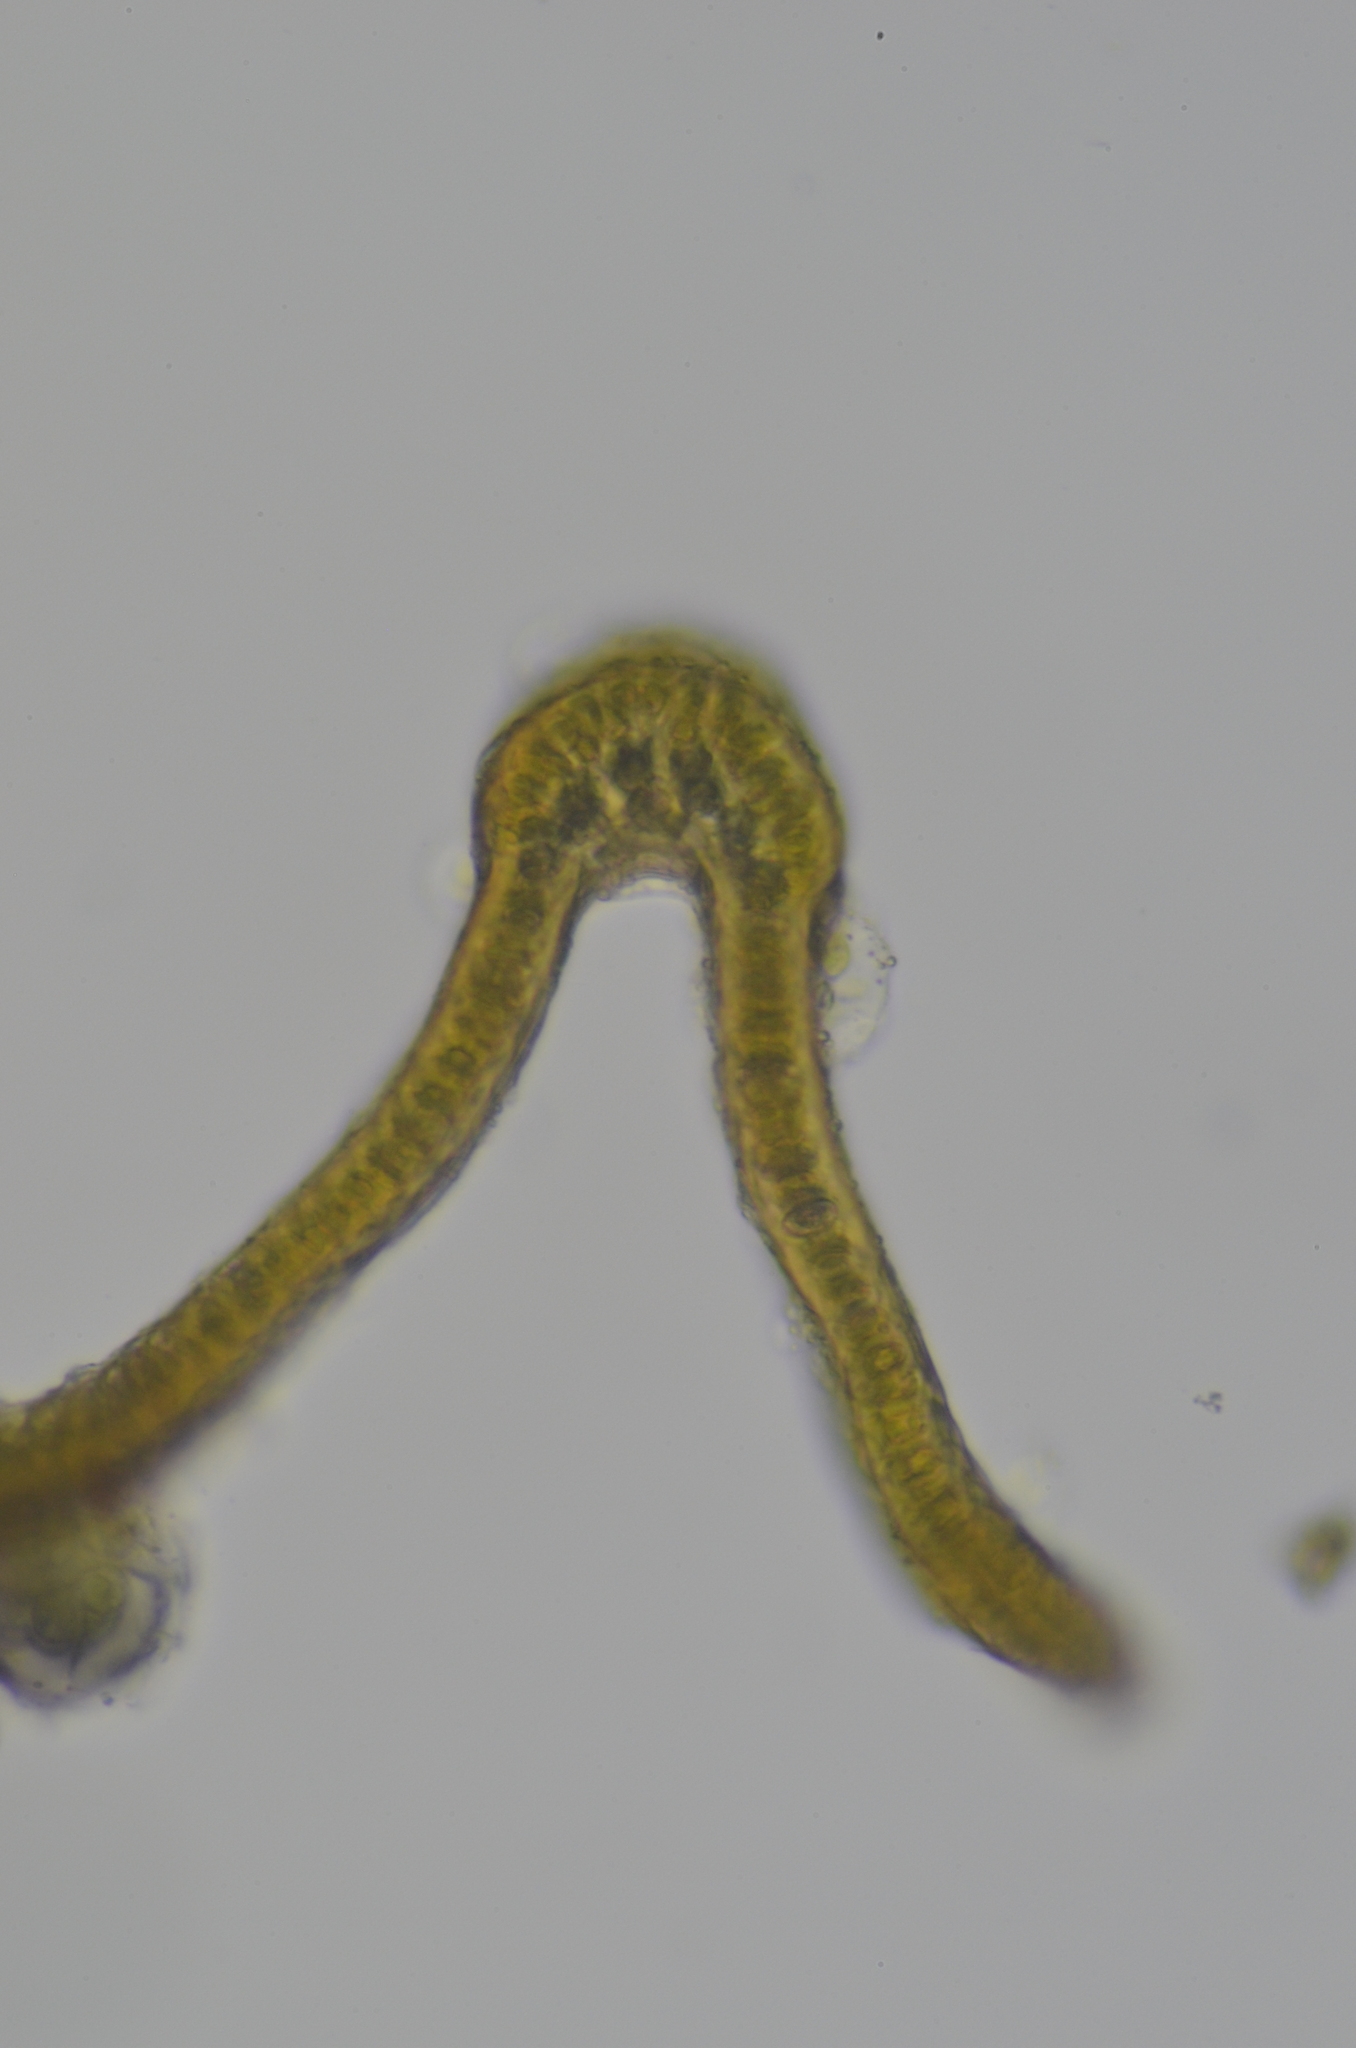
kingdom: Plantae
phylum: Bryophyta
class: Bryopsida
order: Grimmiales
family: Grimmiaceae
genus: Bucklandiella
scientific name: Bucklandiella macounii
